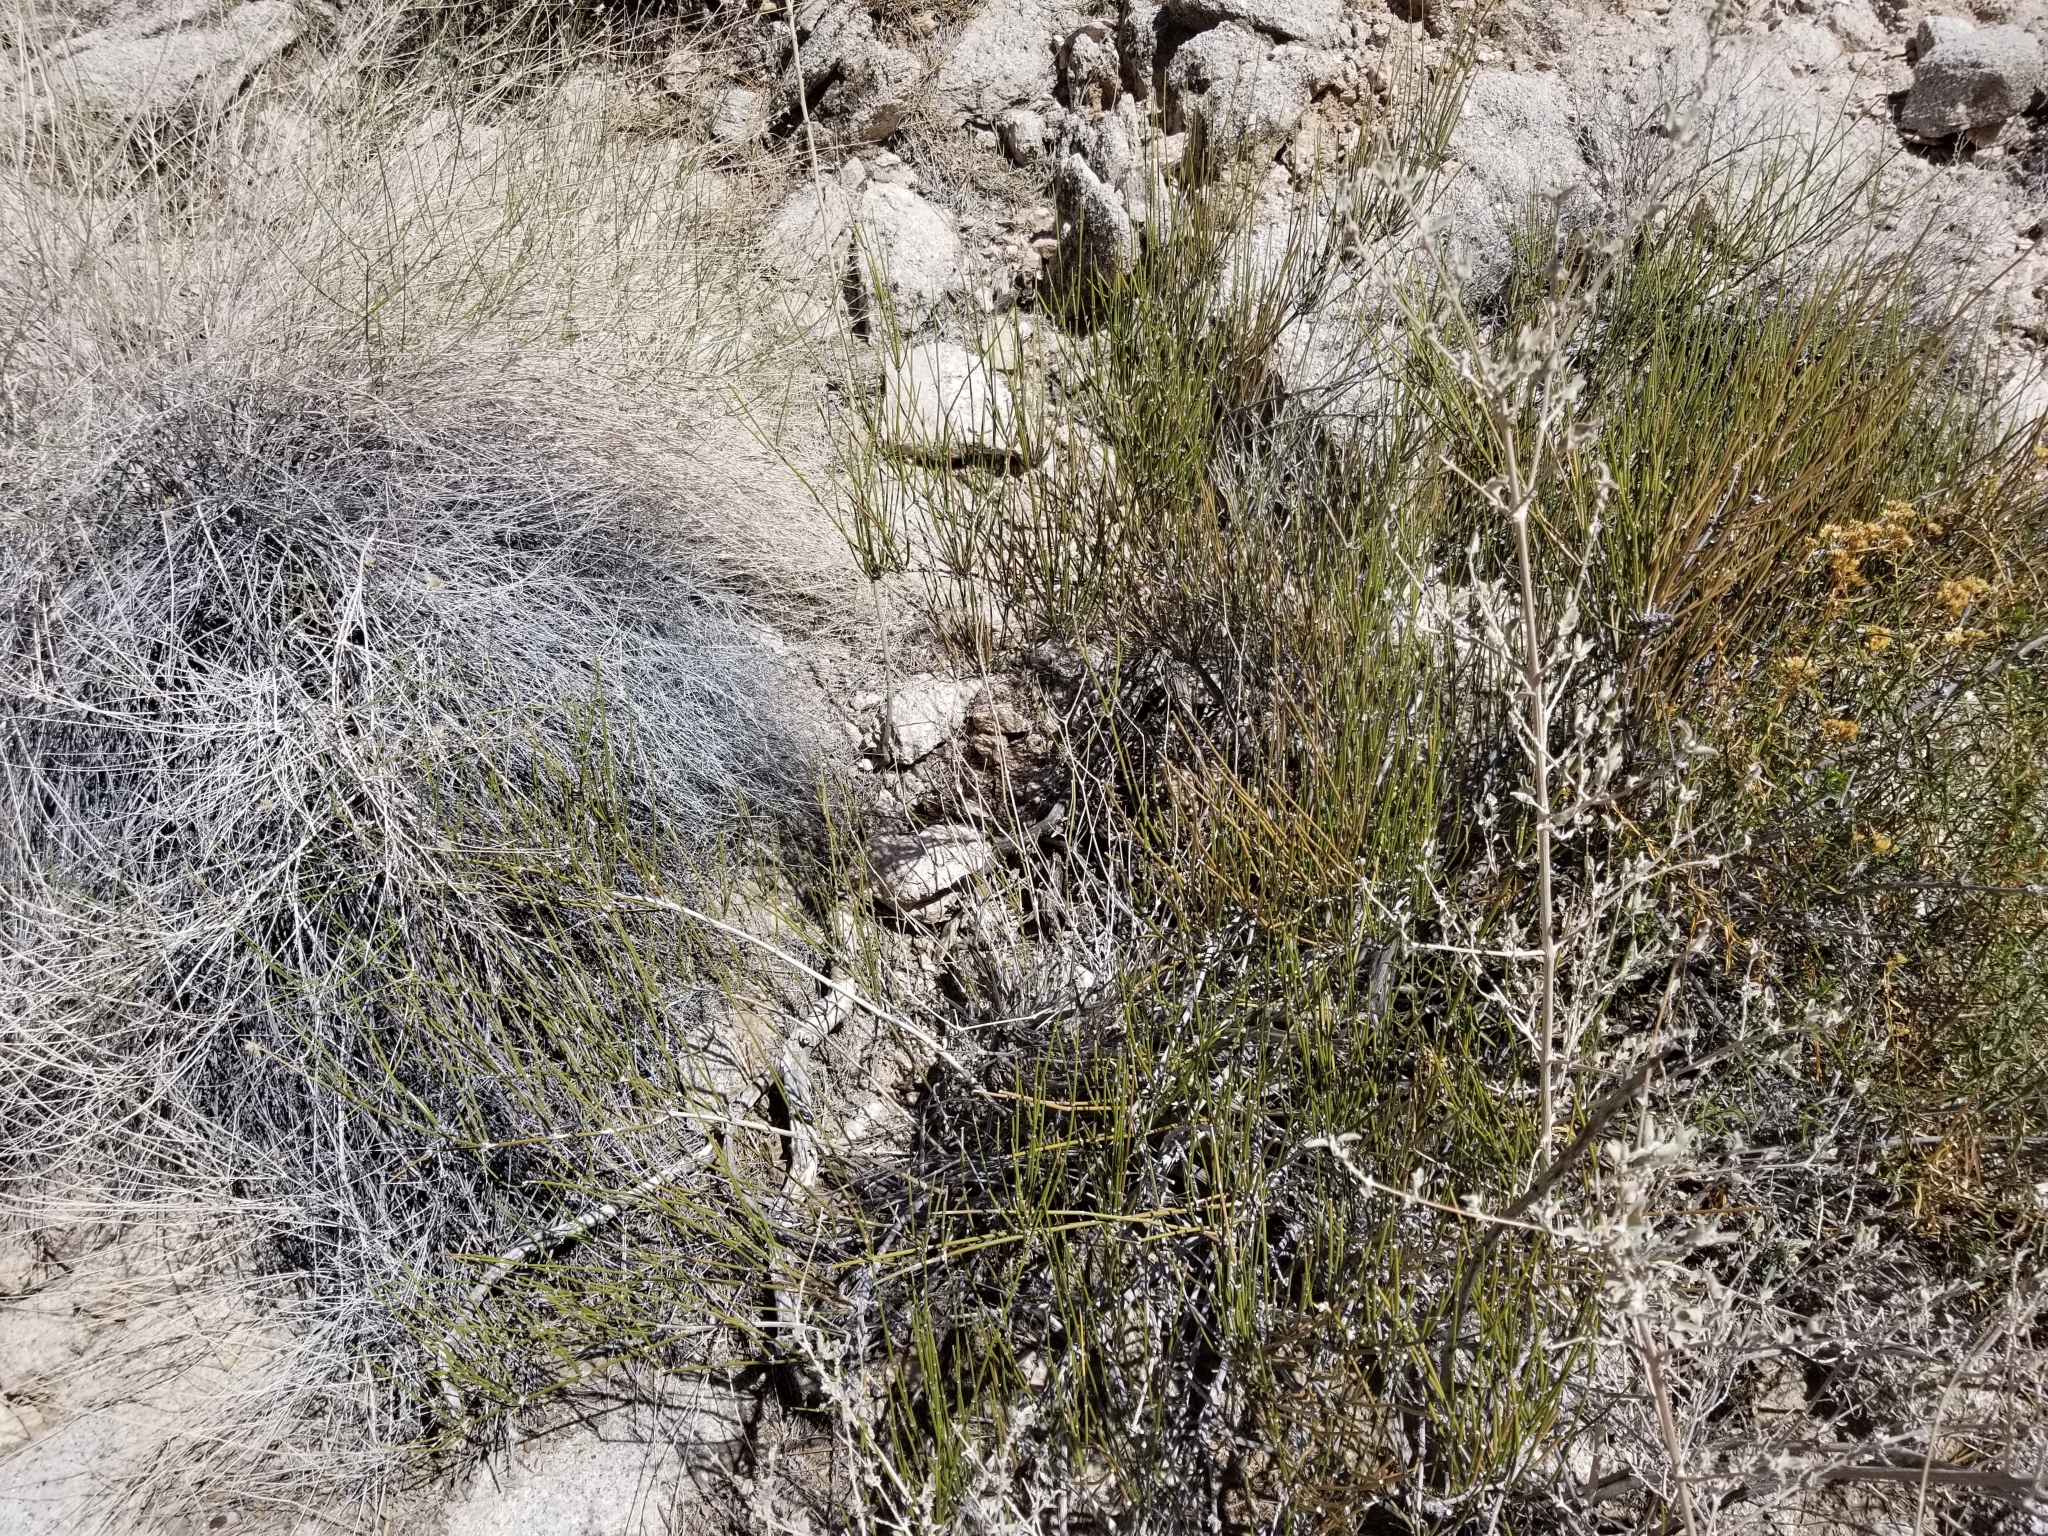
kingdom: Plantae
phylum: Tracheophyta
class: Gnetopsida
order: Ephedrales
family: Ephedraceae
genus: Ephedra
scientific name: Ephedra aspera
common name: Boundary ephedra
